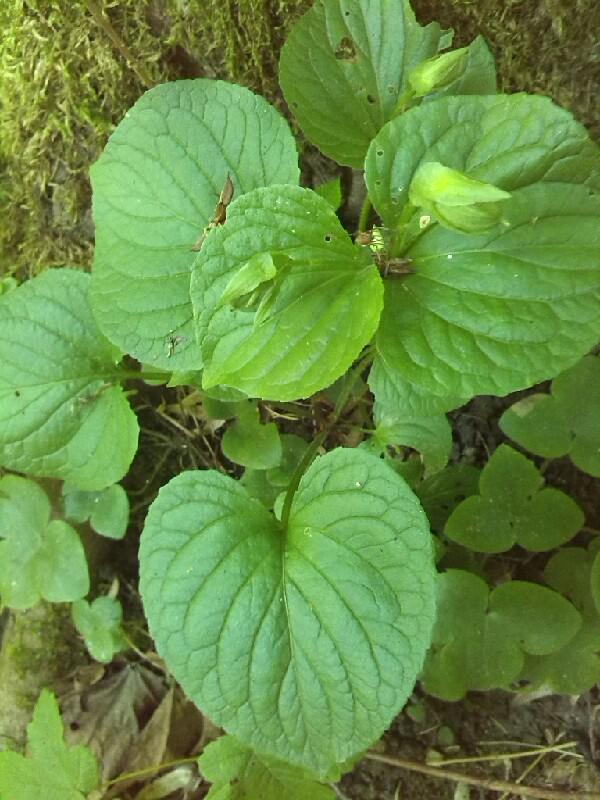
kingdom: Plantae
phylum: Tracheophyta
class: Magnoliopsida
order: Malpighiales
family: Violaceae
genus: Viola
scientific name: Viola mirabilis
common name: Wonder violet
